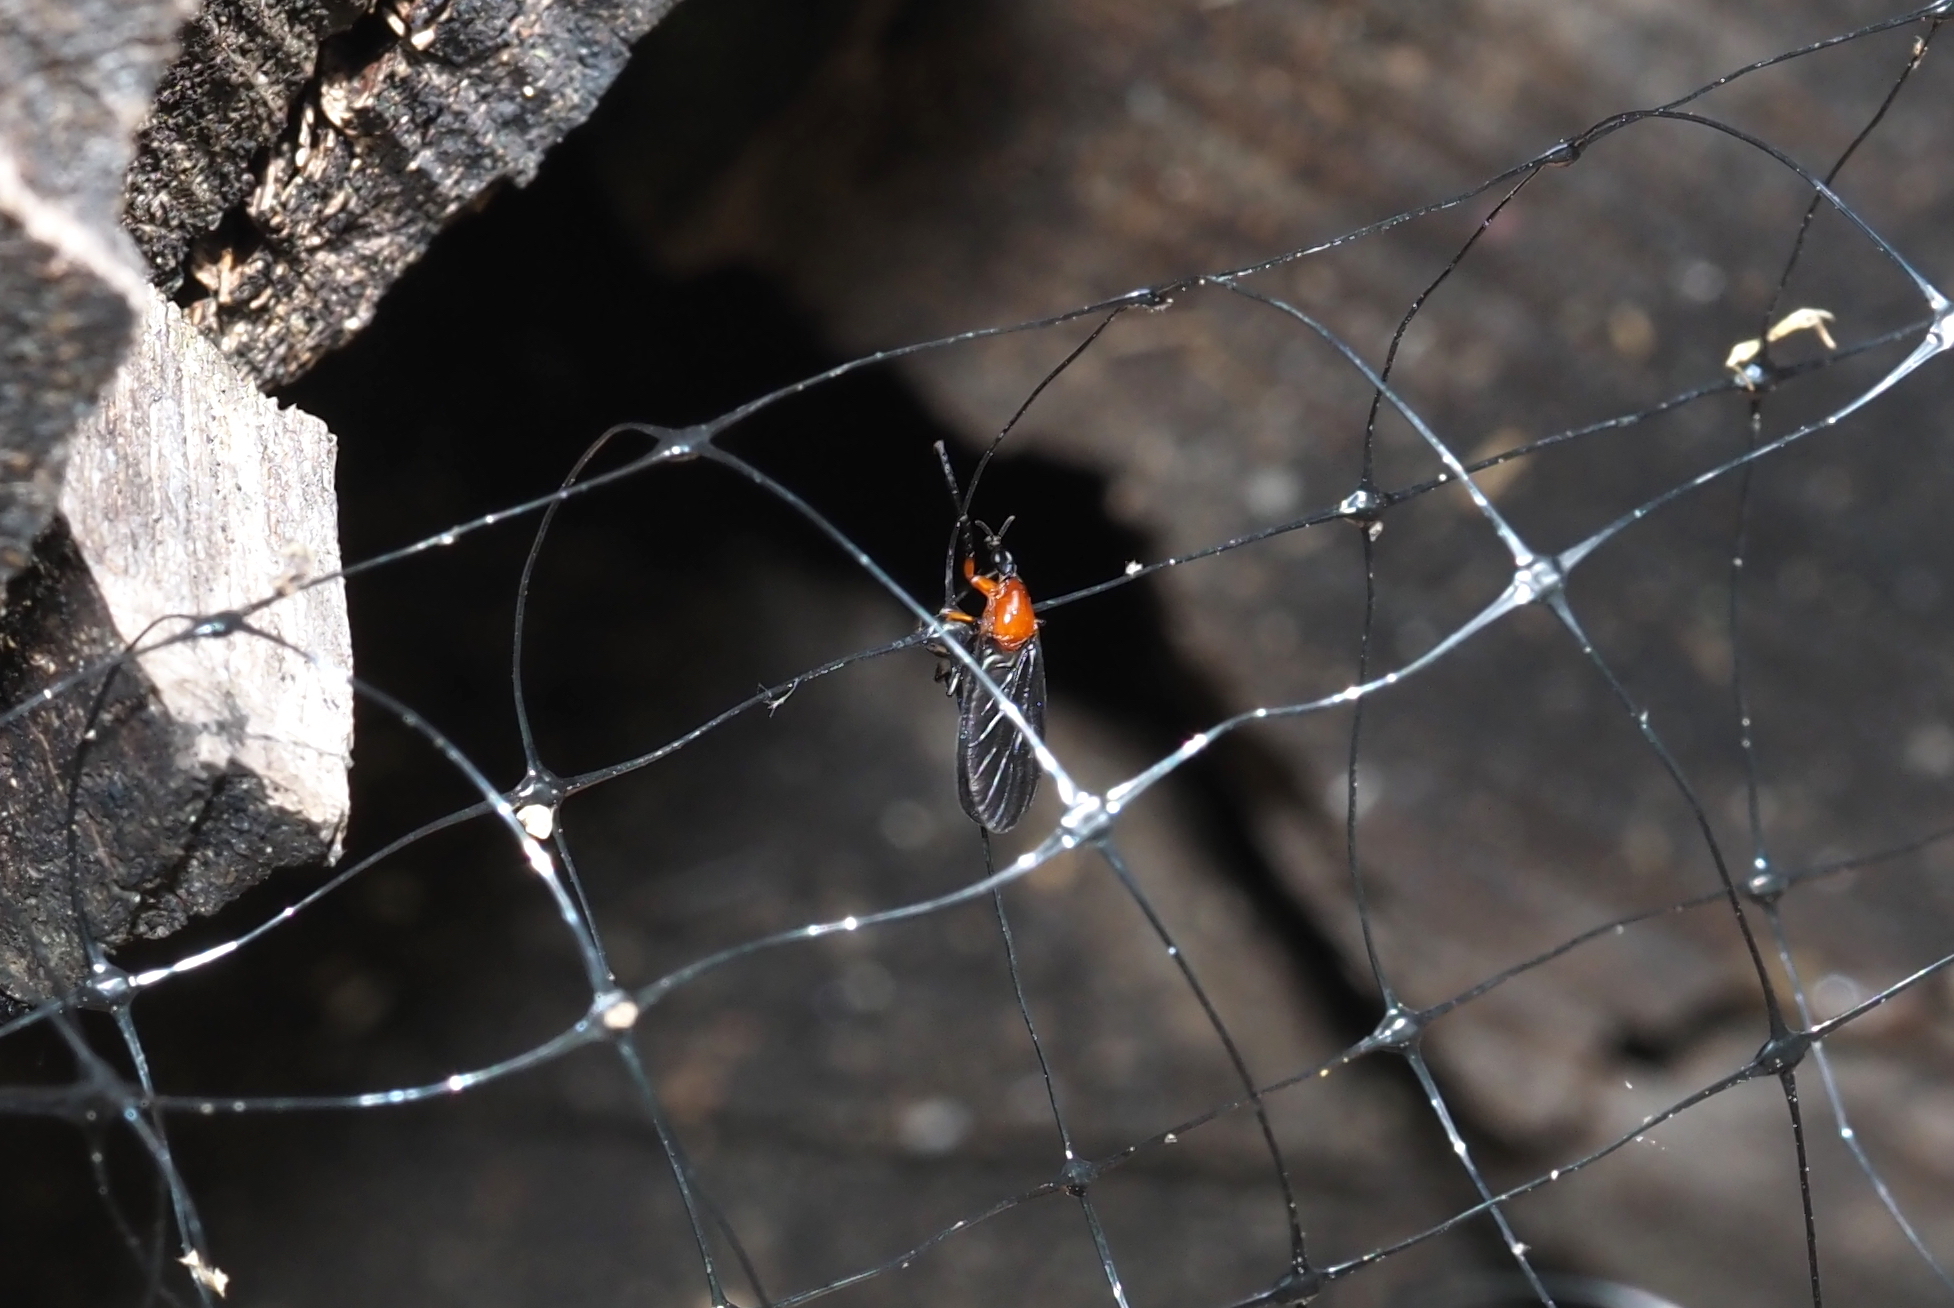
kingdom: Animalia
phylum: Arthropoda
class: Insecta
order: Diptera
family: Bibionidae
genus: Dilophus
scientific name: Dilophus spinipes
